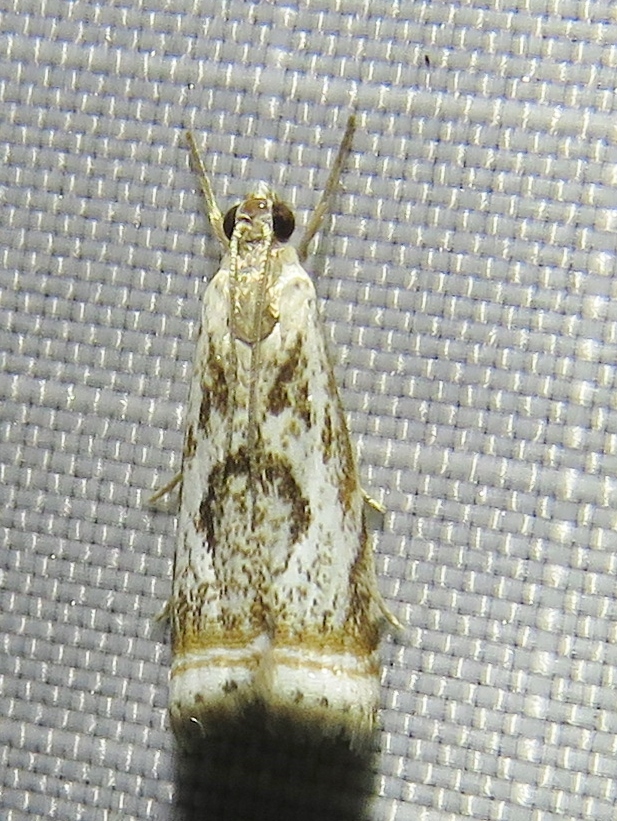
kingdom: Animalia
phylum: Arthropoda
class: Insecta
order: Lepidoptera
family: Crambidae
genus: Microcrambus
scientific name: Microcrambus elegans
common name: Elegant grass-veneer
